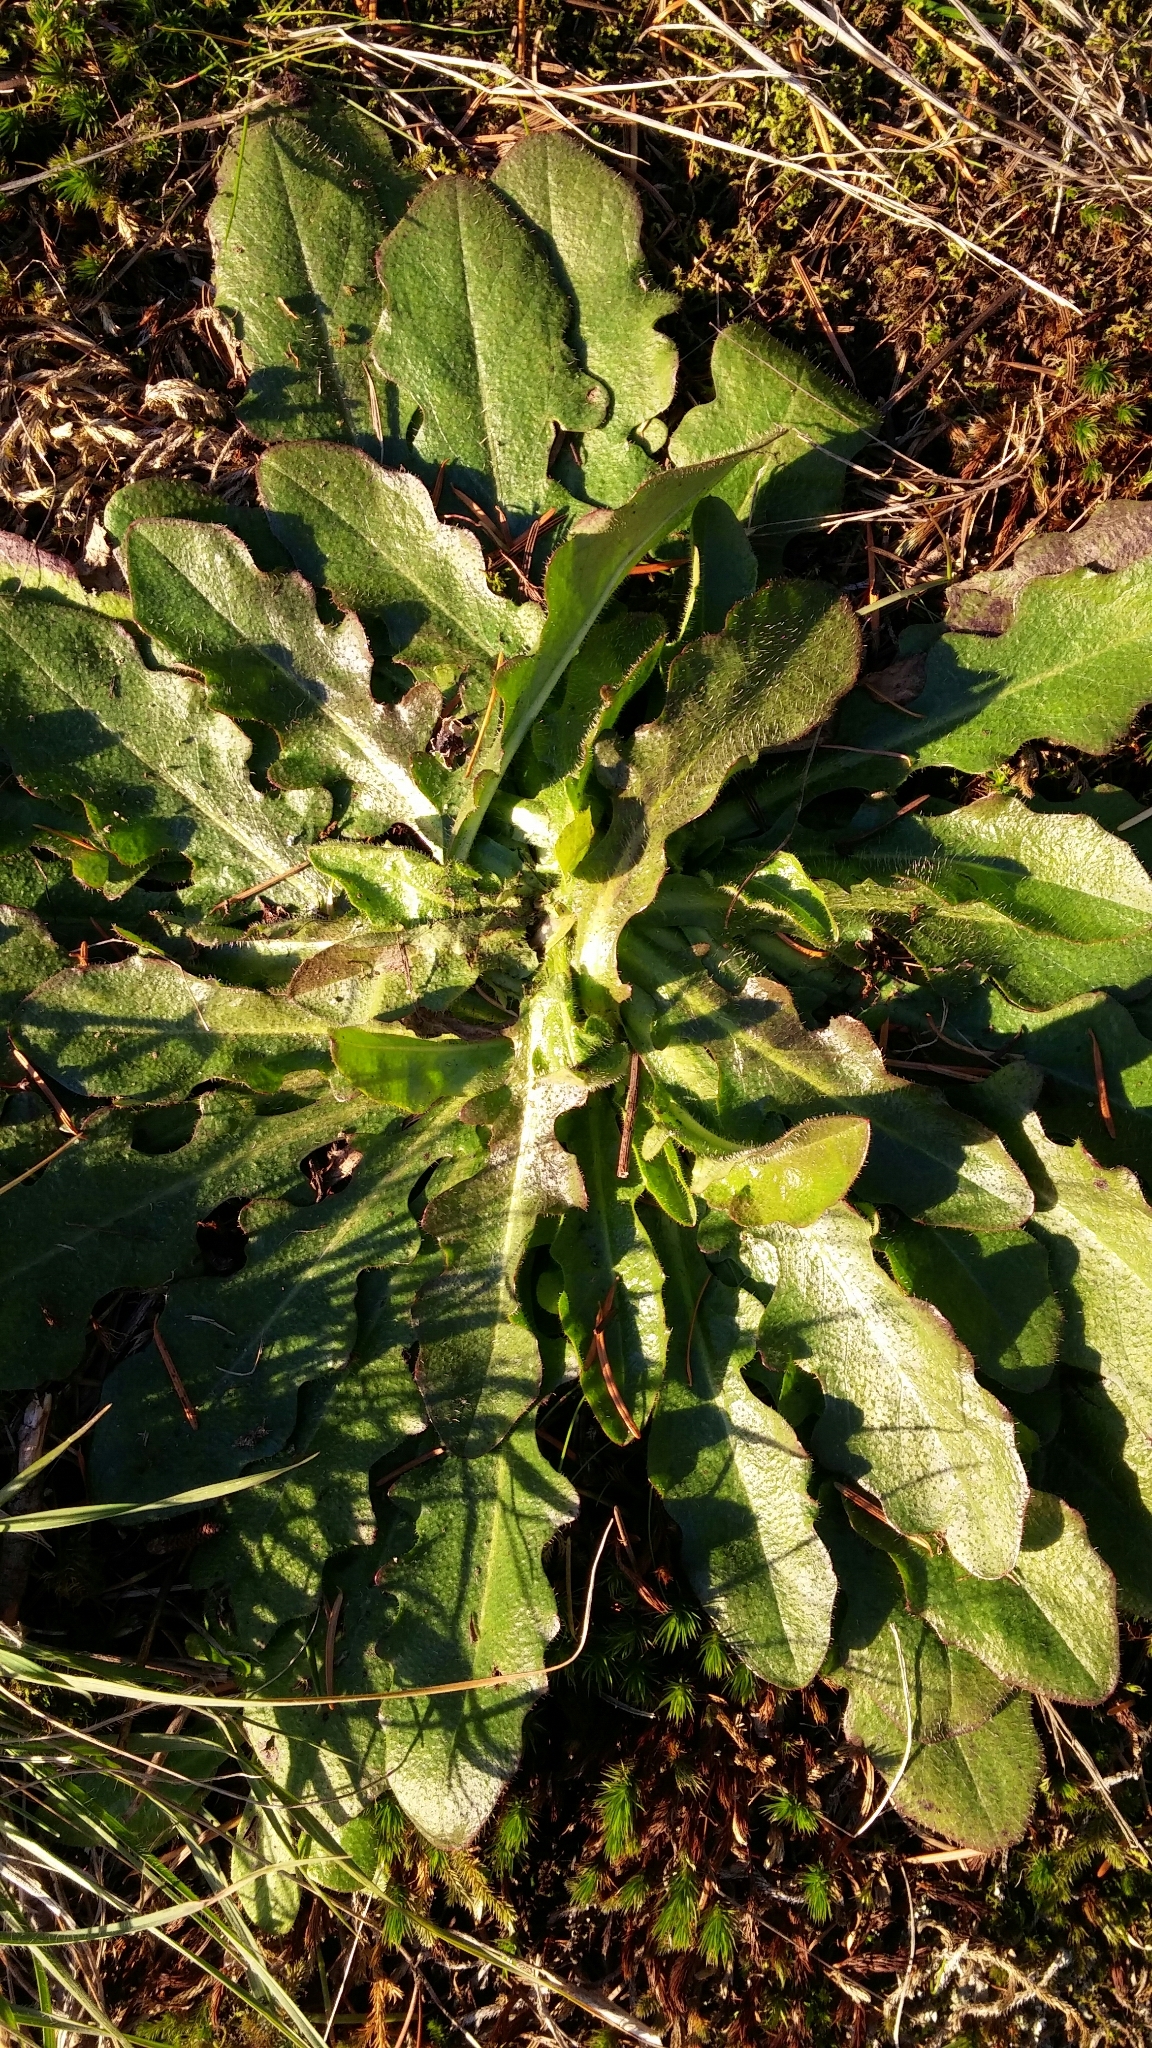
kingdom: Plantae
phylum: Tracheophyta
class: Magnoliopsida
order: Asterales
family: Asteraceae
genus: Hypochaeris
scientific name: Hypochaeris radicata
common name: Flatweed
